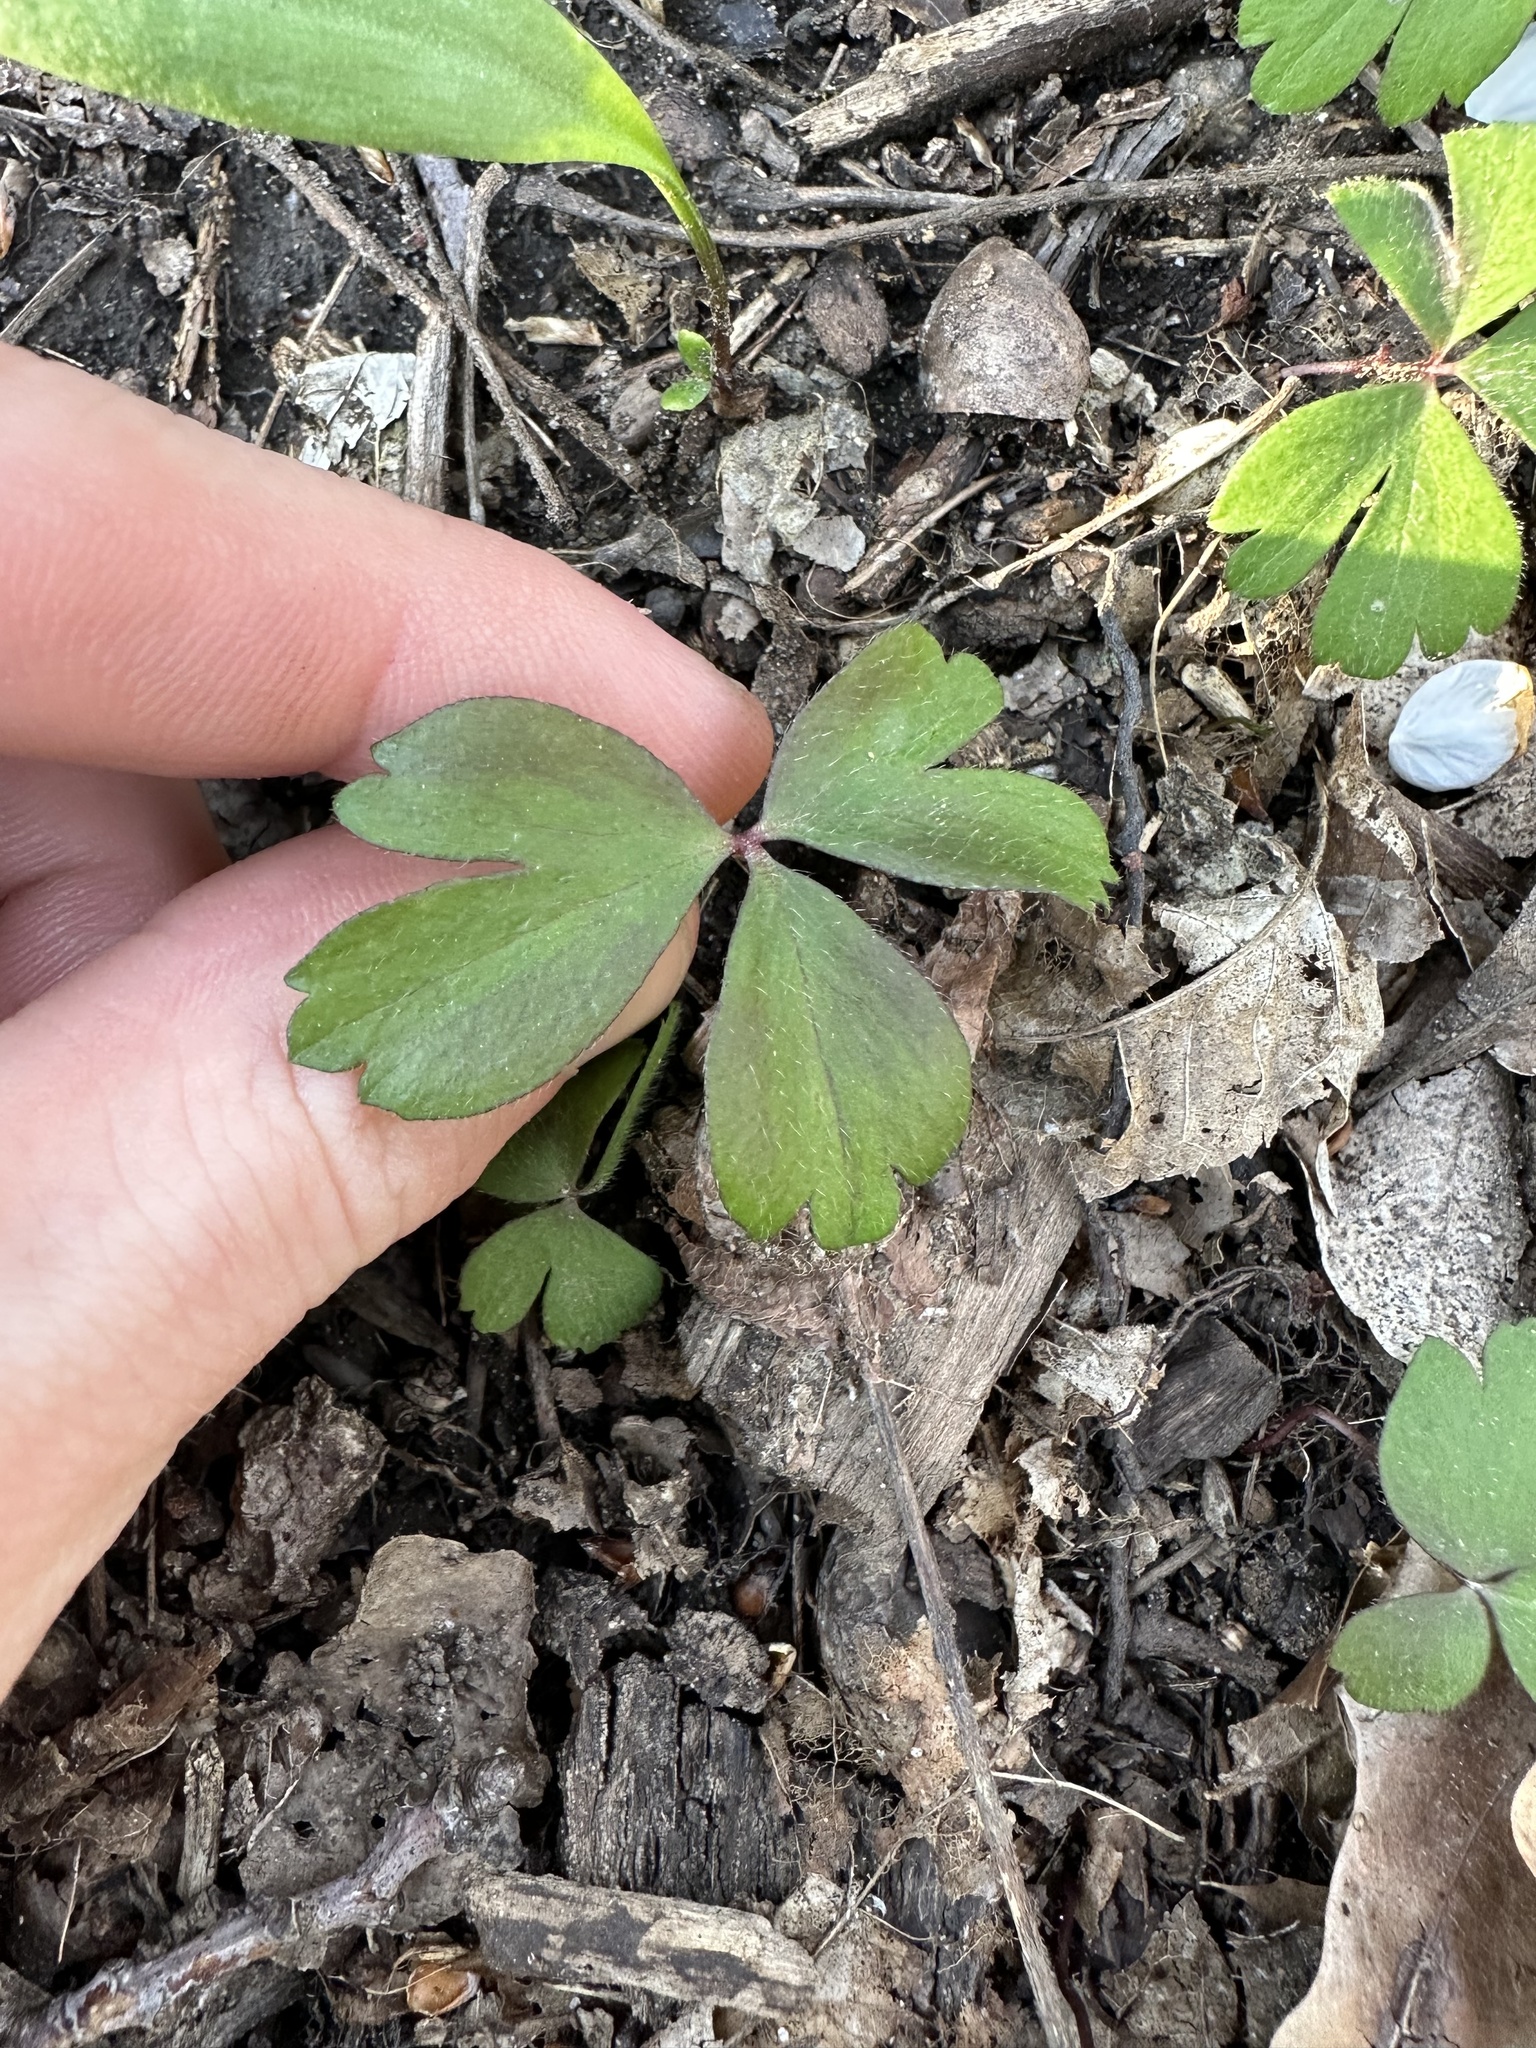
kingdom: Plantae
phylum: Tracheophyta
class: Magnoliopsida
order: Ranunculales
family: Ranunculaceae
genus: Anemone
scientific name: Anemone quinquefolia
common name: Wood anemone
